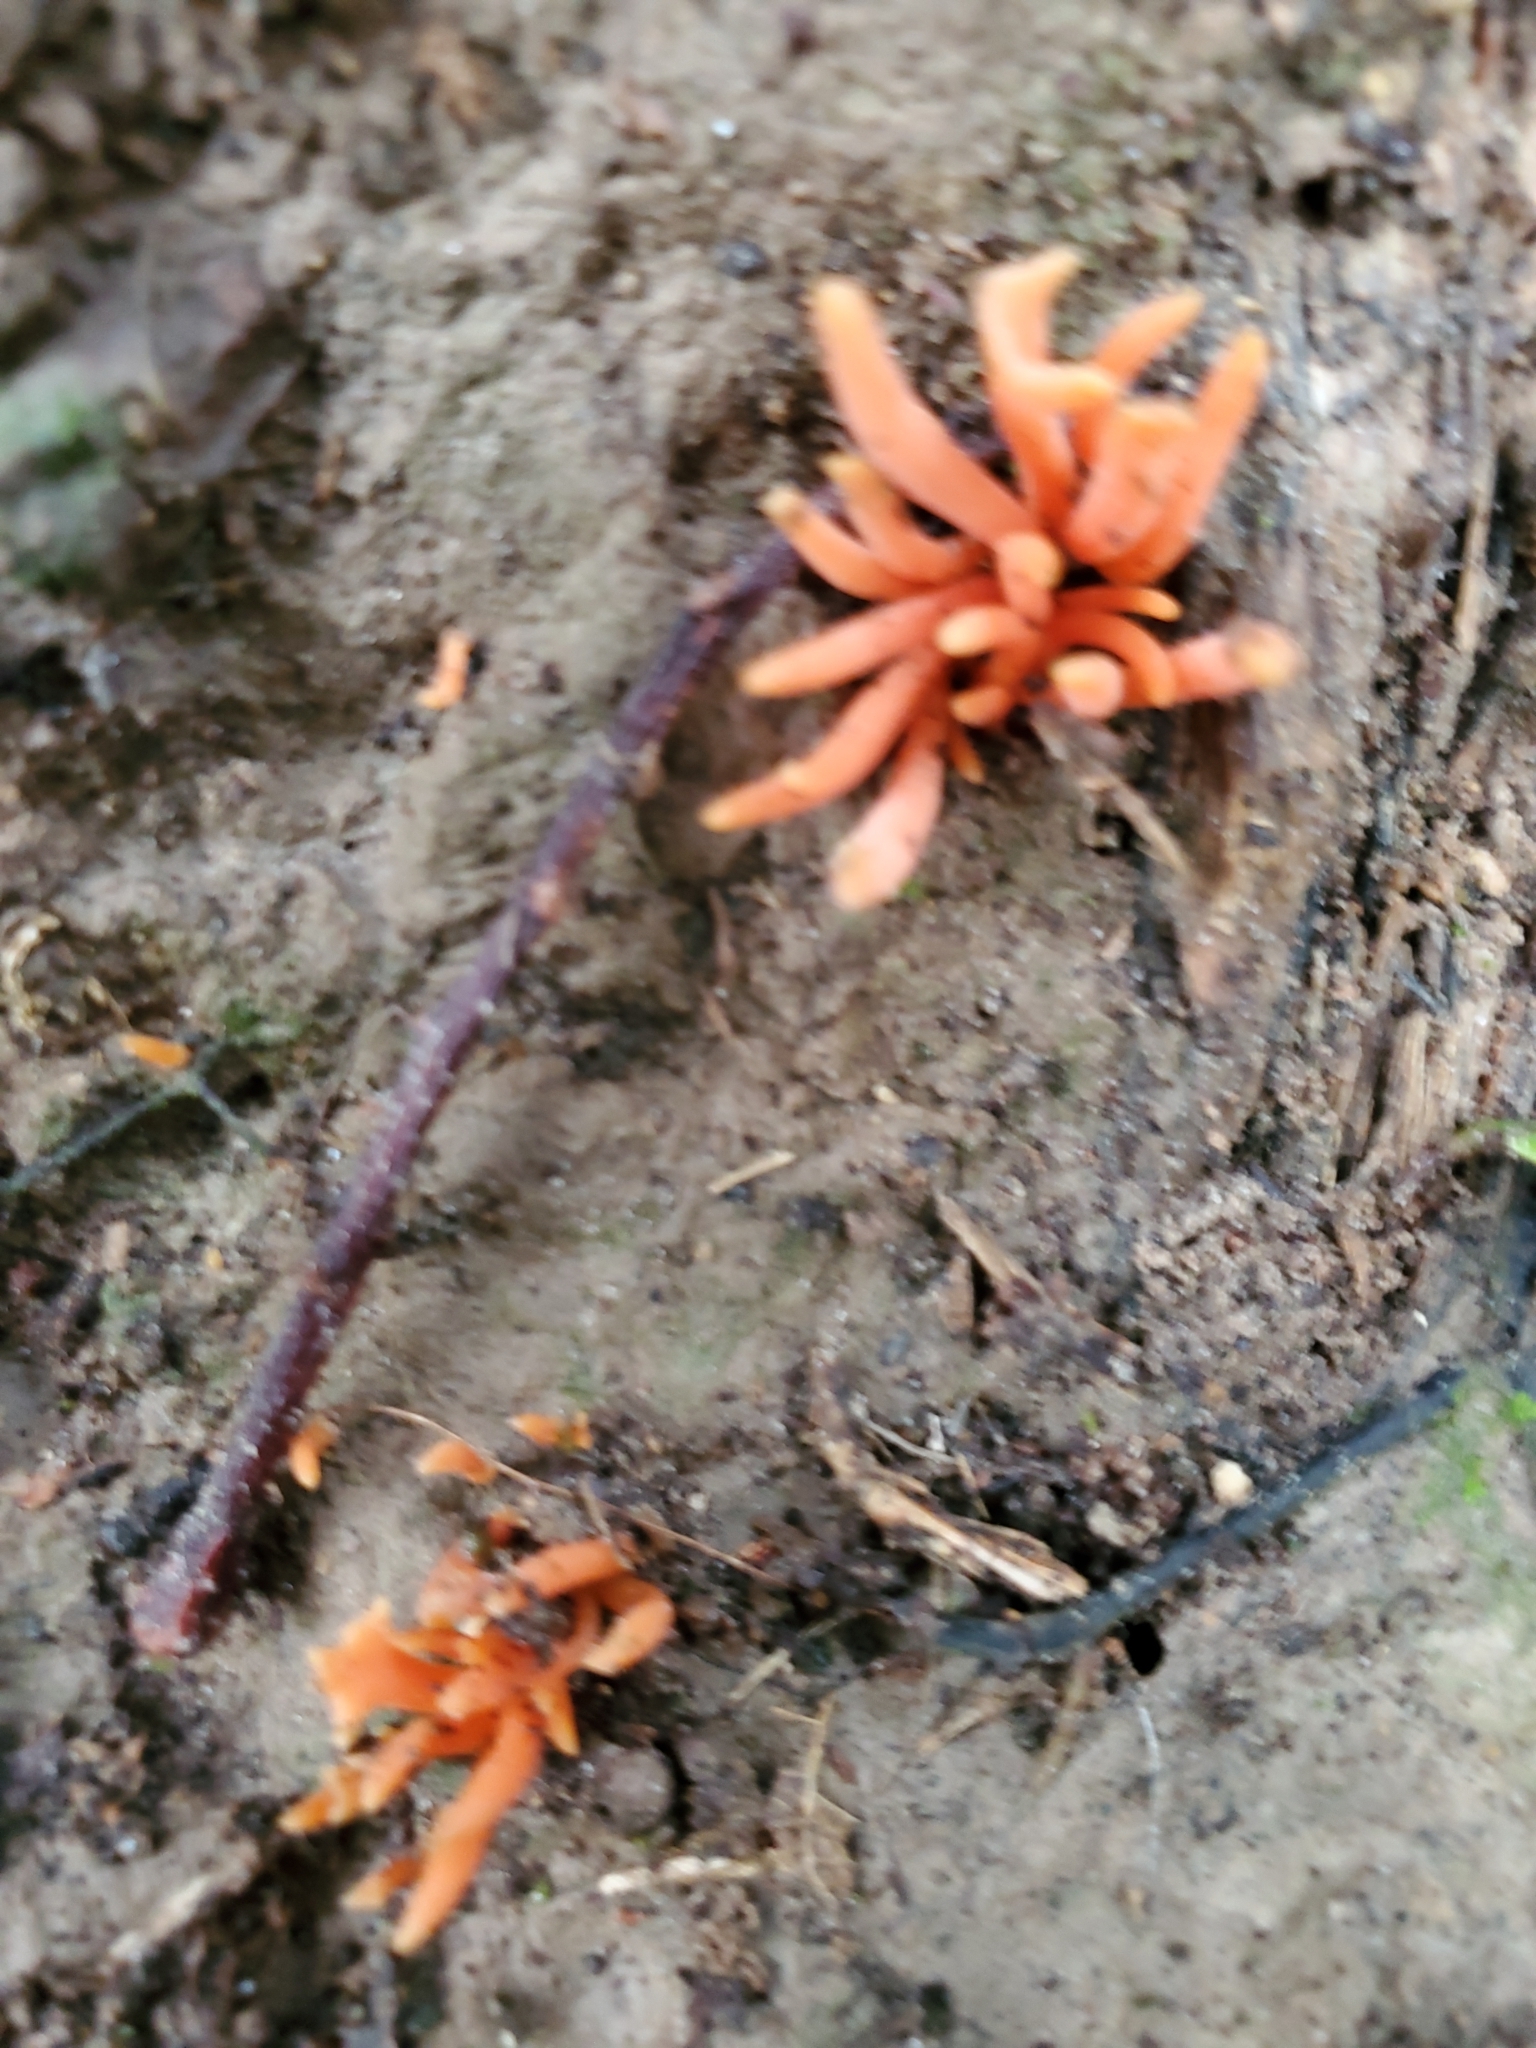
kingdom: Fungi
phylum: Basidiomycota
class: Agaricomycetes
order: Agaricales
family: Clavariaceae
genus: Clavulinopsis
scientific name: Clavulinopsis sulcata
